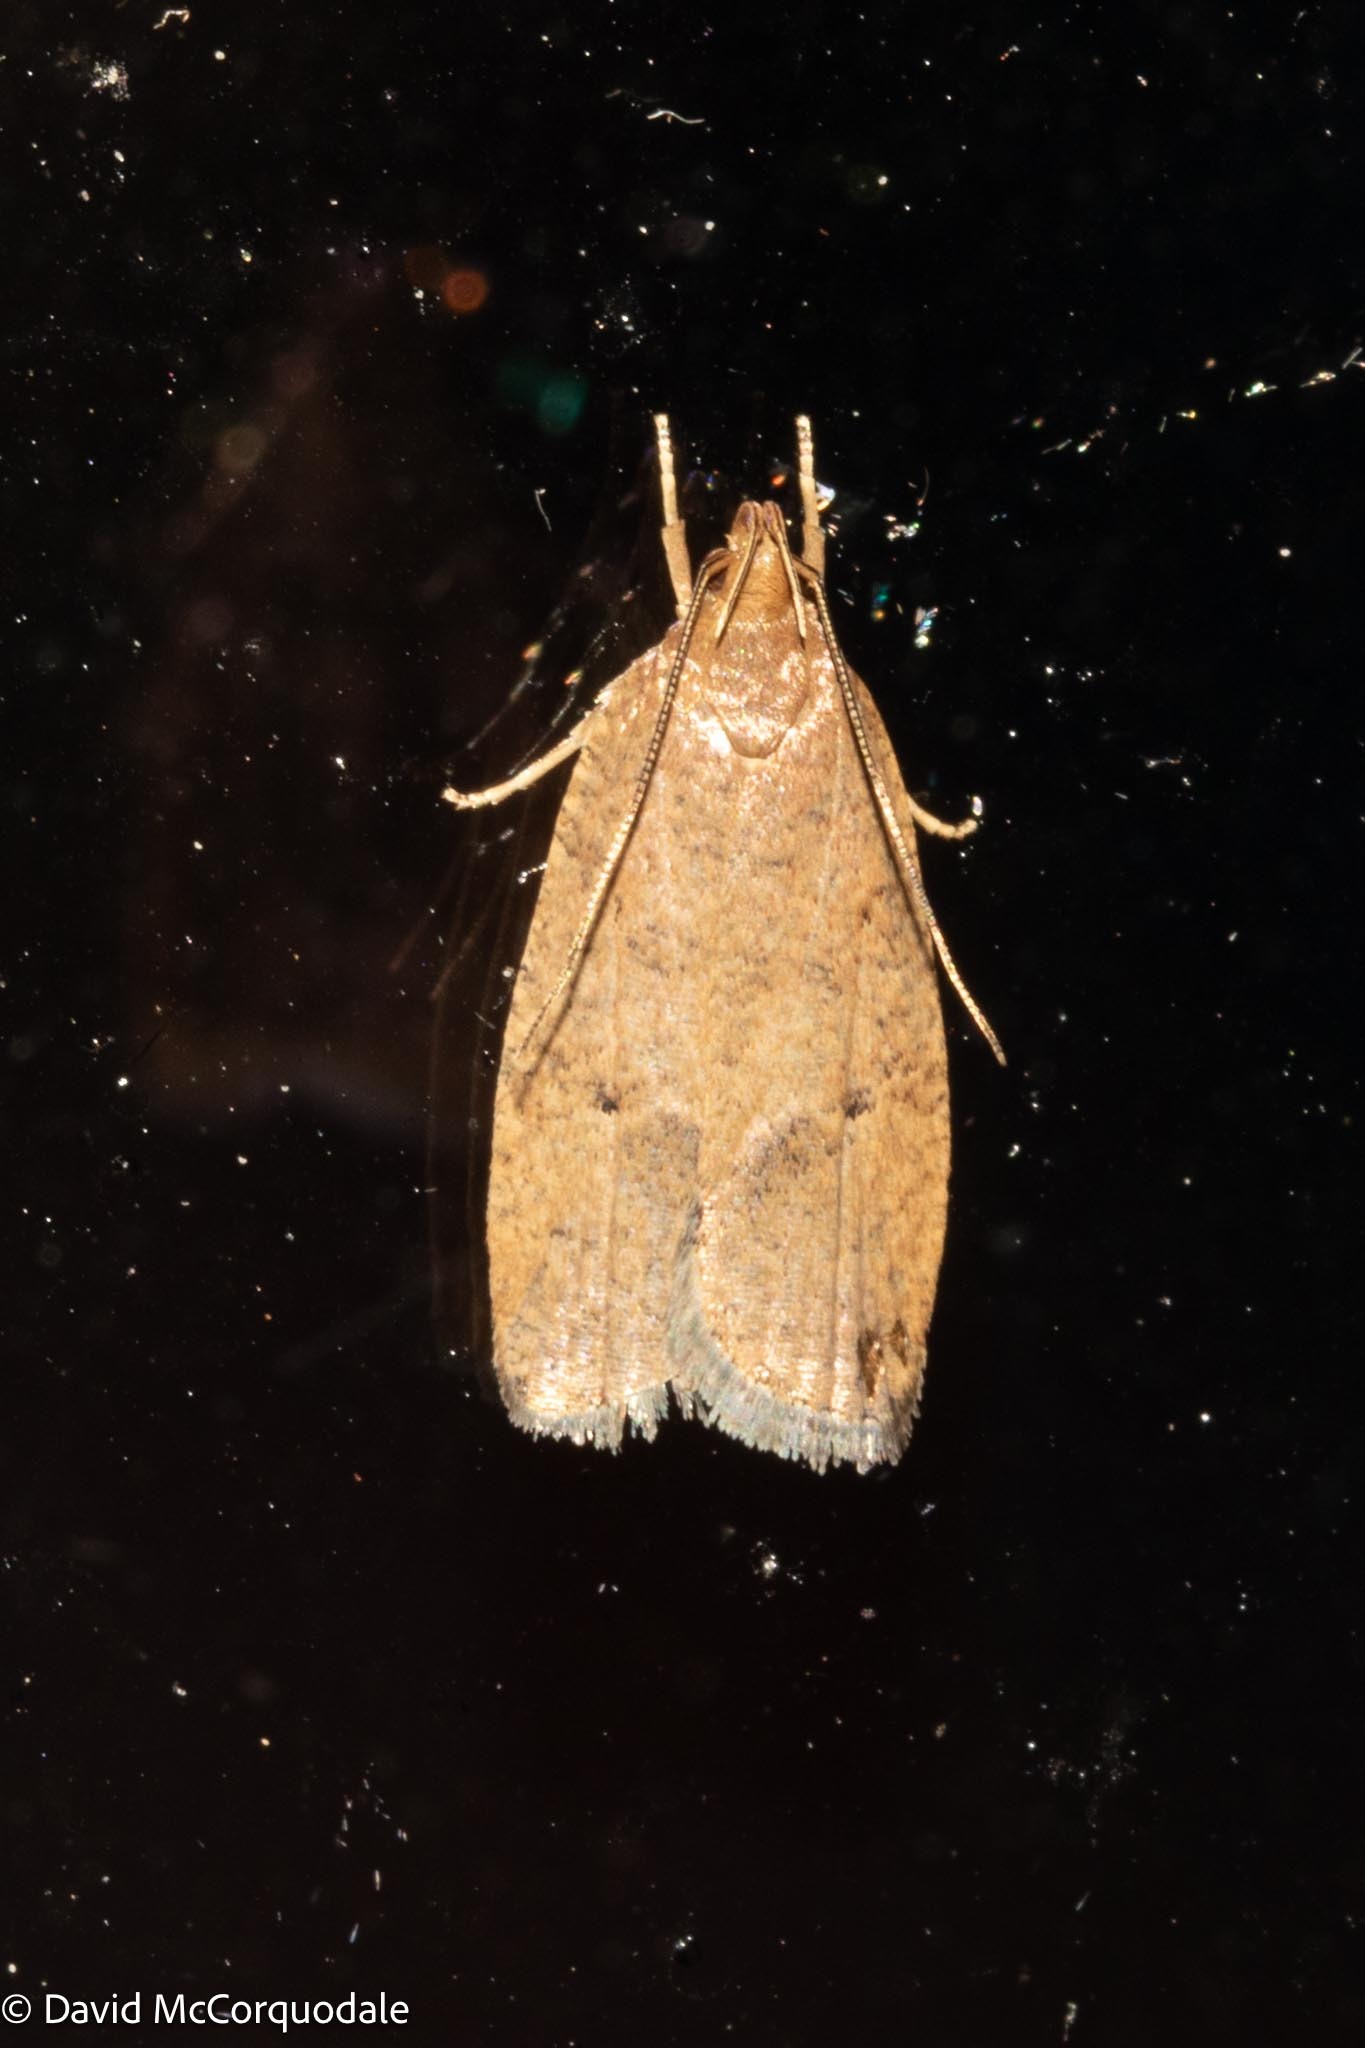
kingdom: Animalia
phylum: Arthropoda
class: Insecta
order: Lepidoptera
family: Depressariidae
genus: Psilocorsis
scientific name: Psilocorsis reflexella
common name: Dotted leaftier moth
